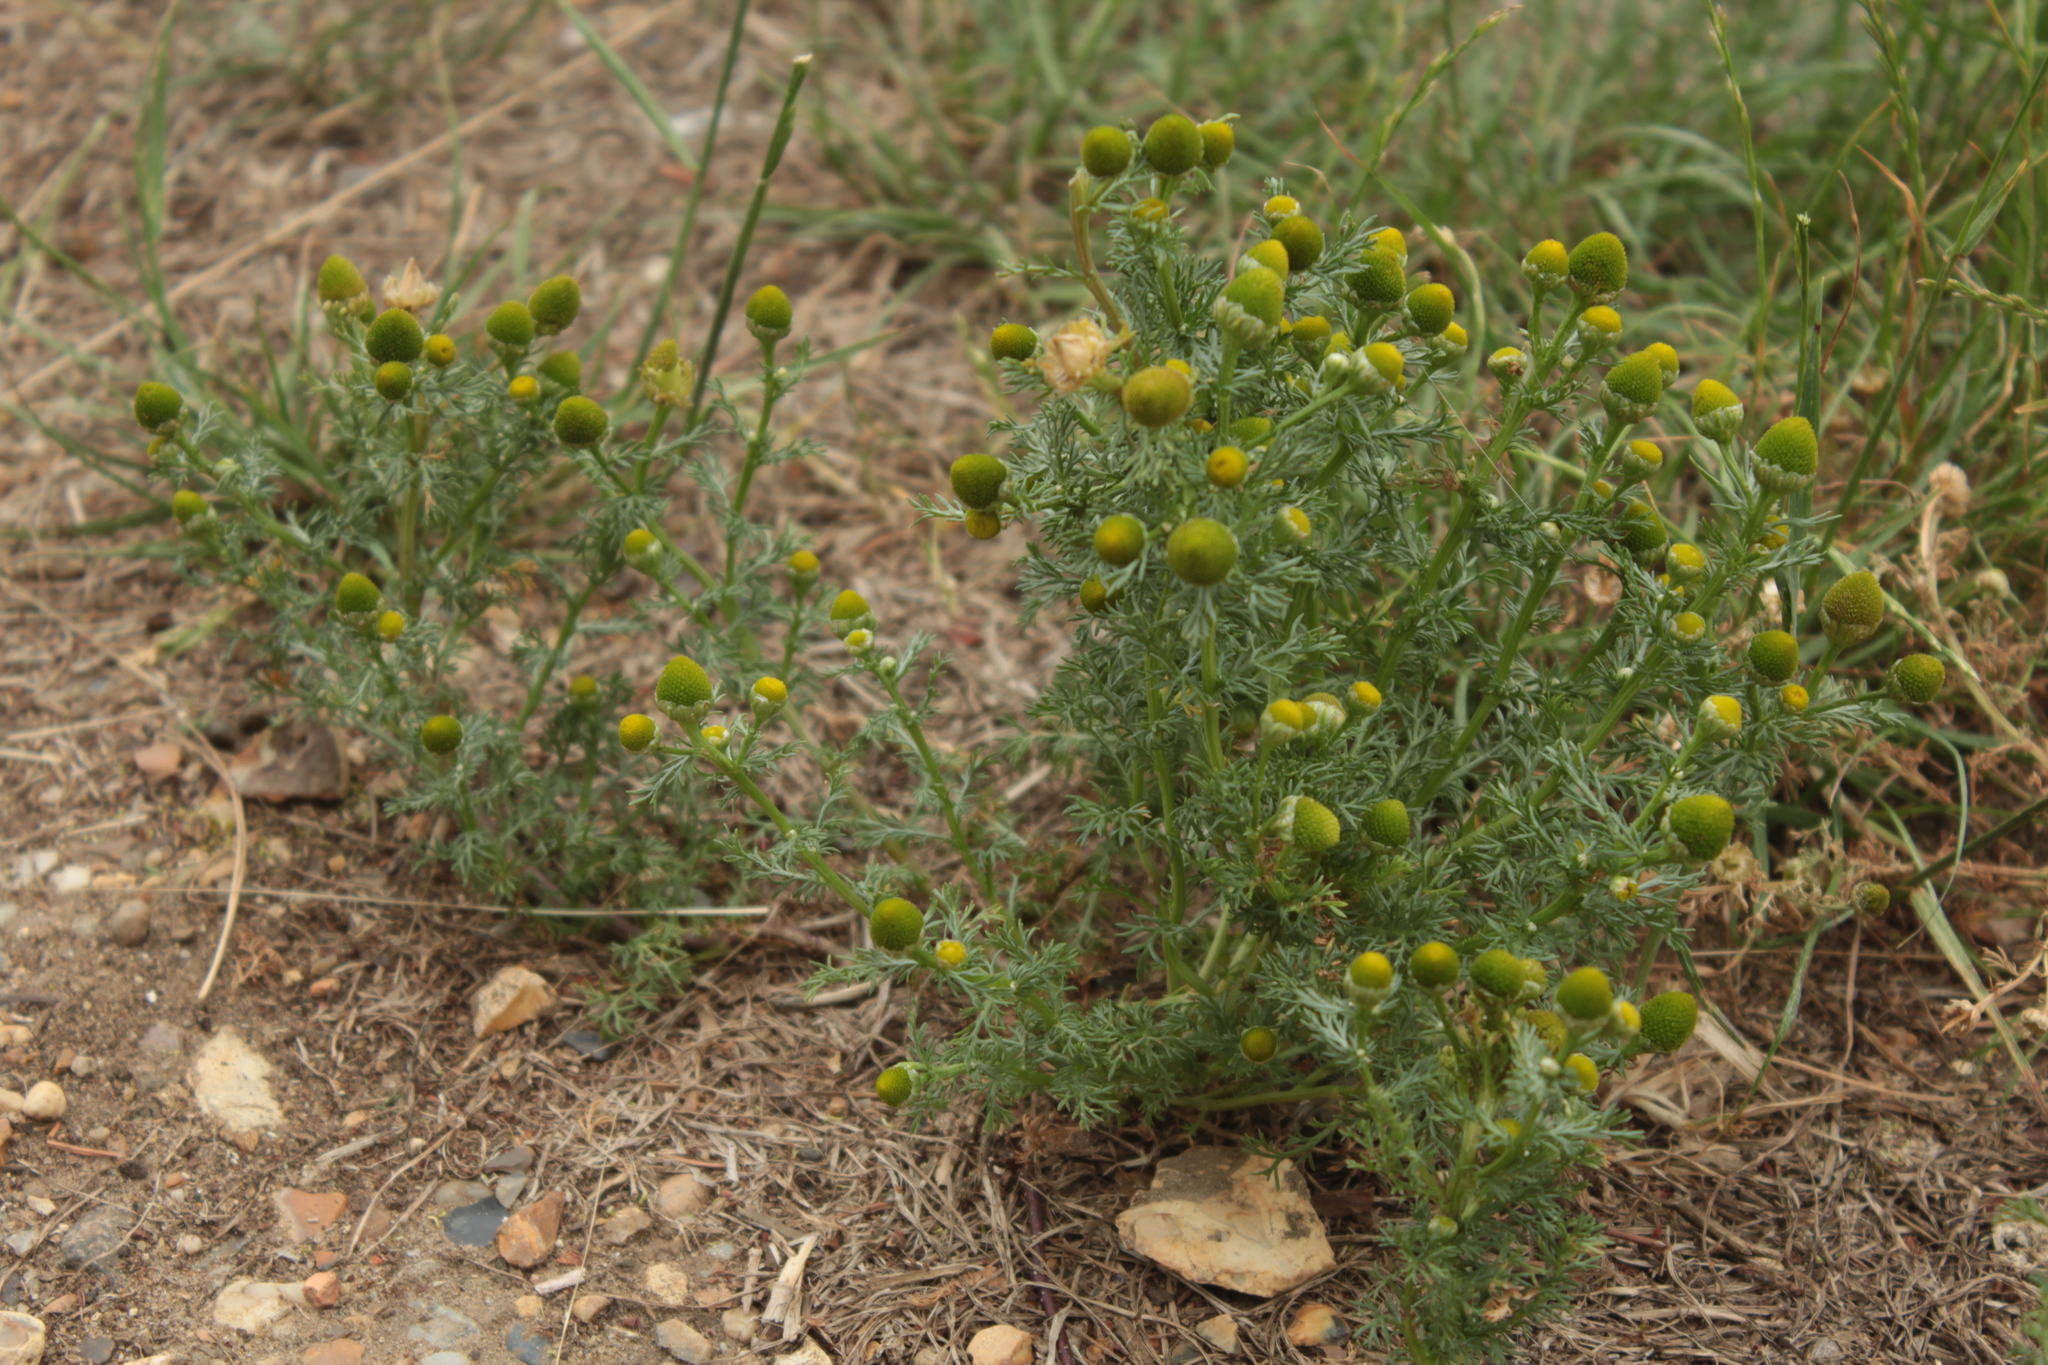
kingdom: Plantae
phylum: Tracheophyta
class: Magnoliopsida
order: Asterales
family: Asteraceae
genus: Matricaria
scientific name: Matricaria discoidea
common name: Disc mayweed
